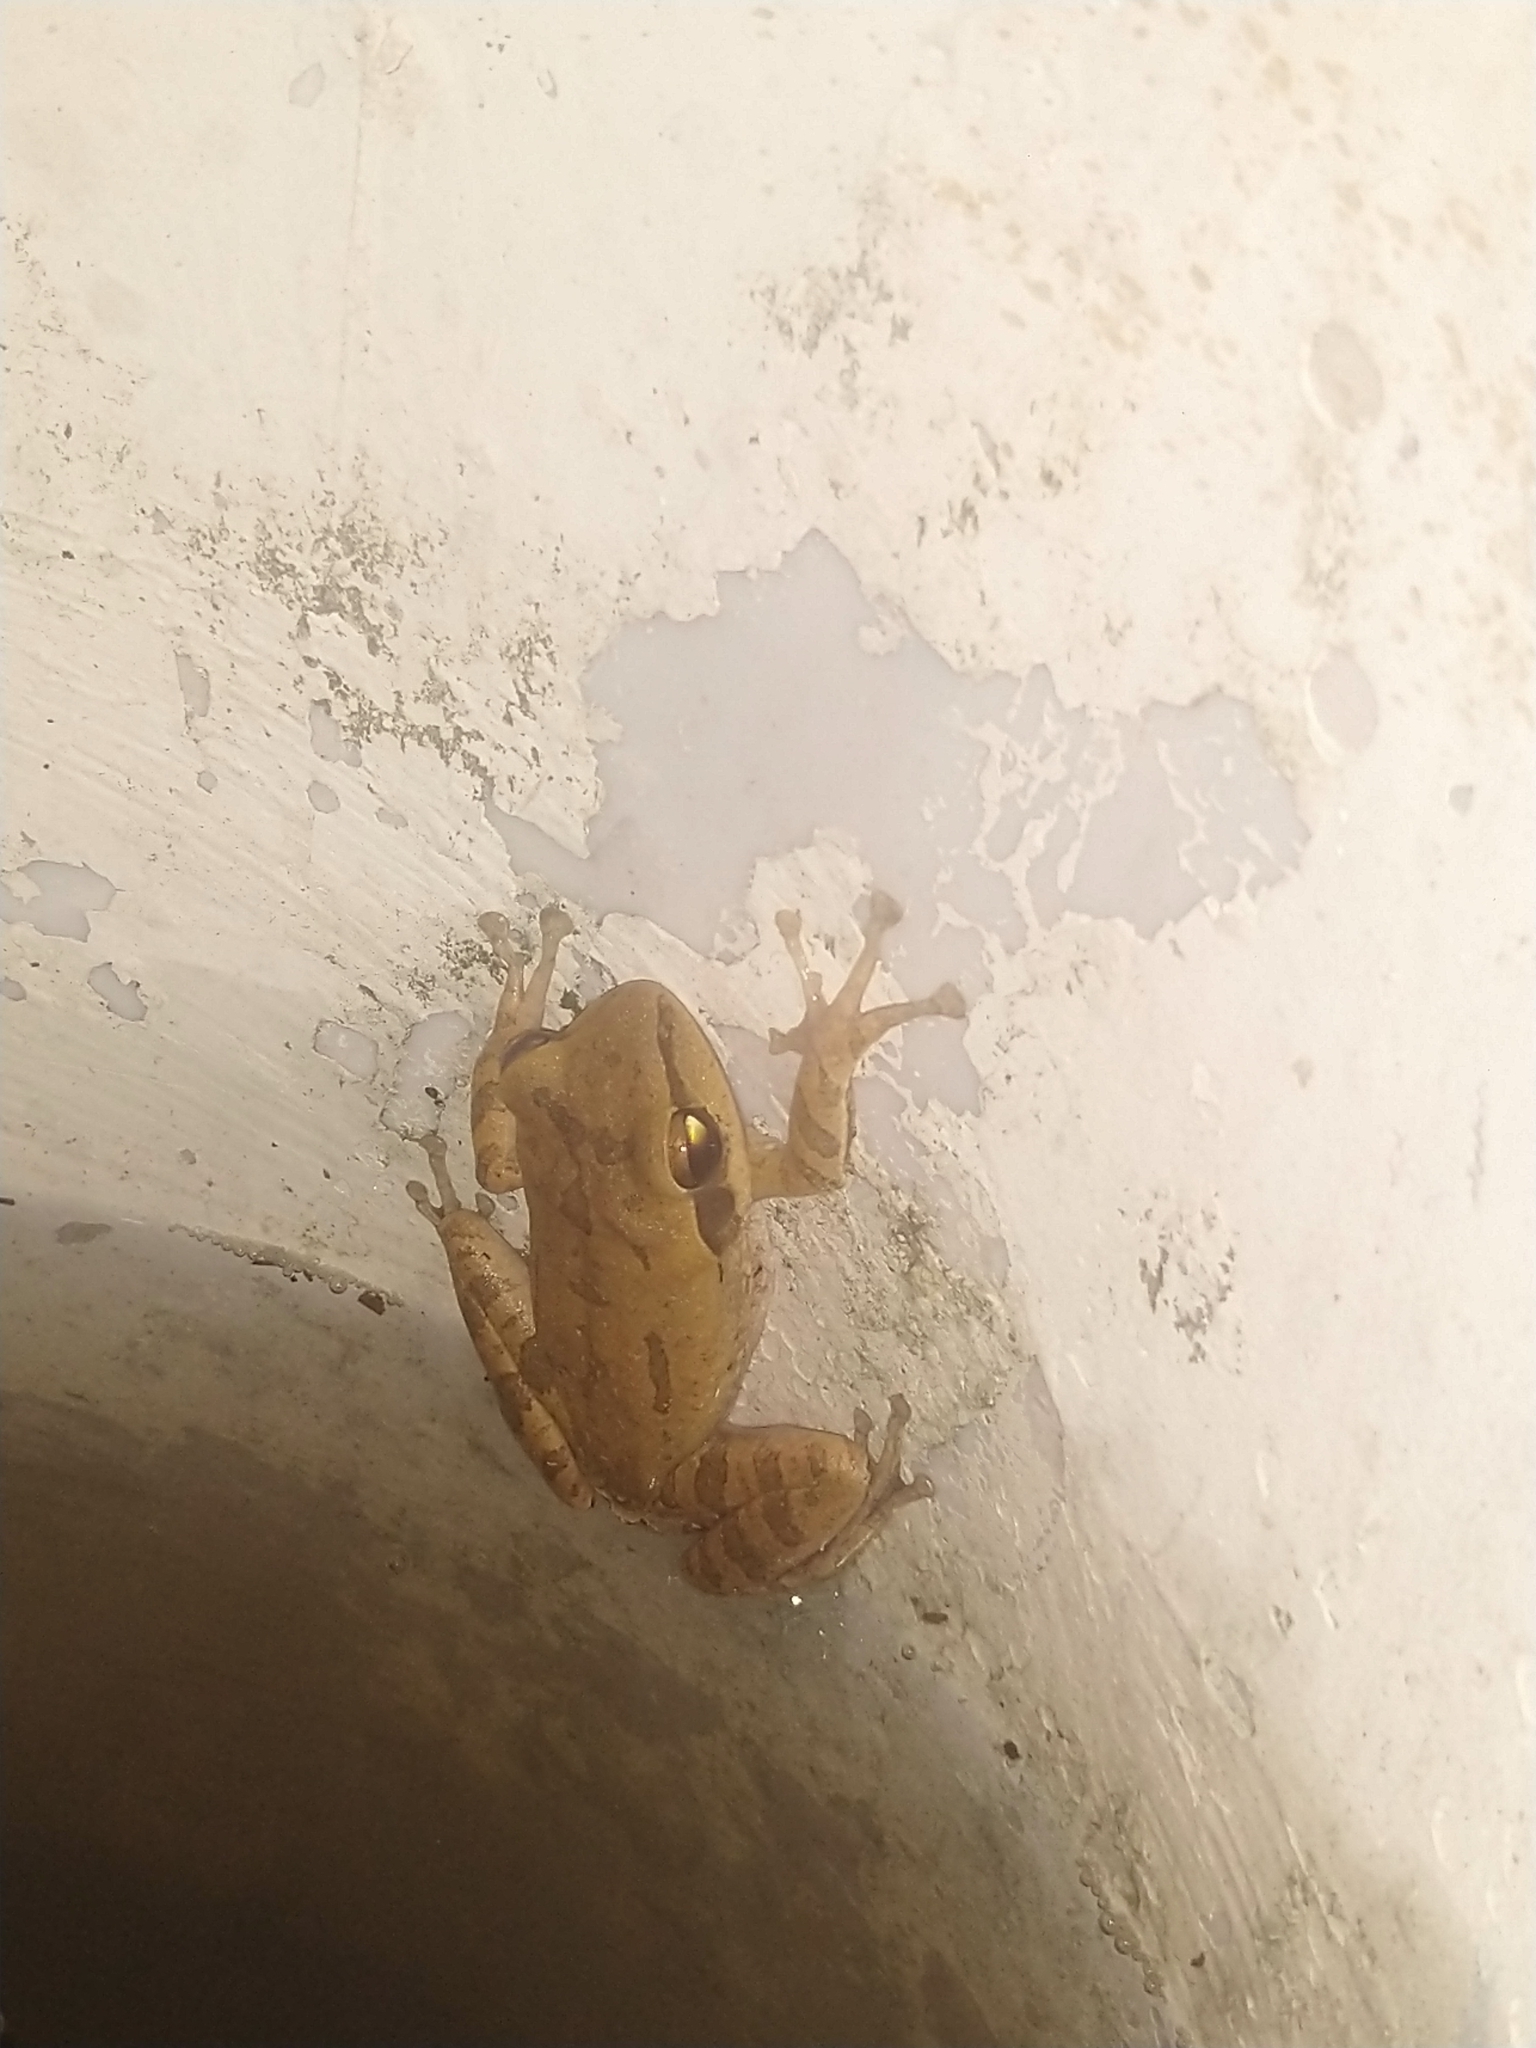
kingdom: Animalia
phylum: Chordata
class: Amphibia
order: Anura
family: Rhacophoridae
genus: Polypedates
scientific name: Polypedates maculatus
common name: Himalayan tree frog
